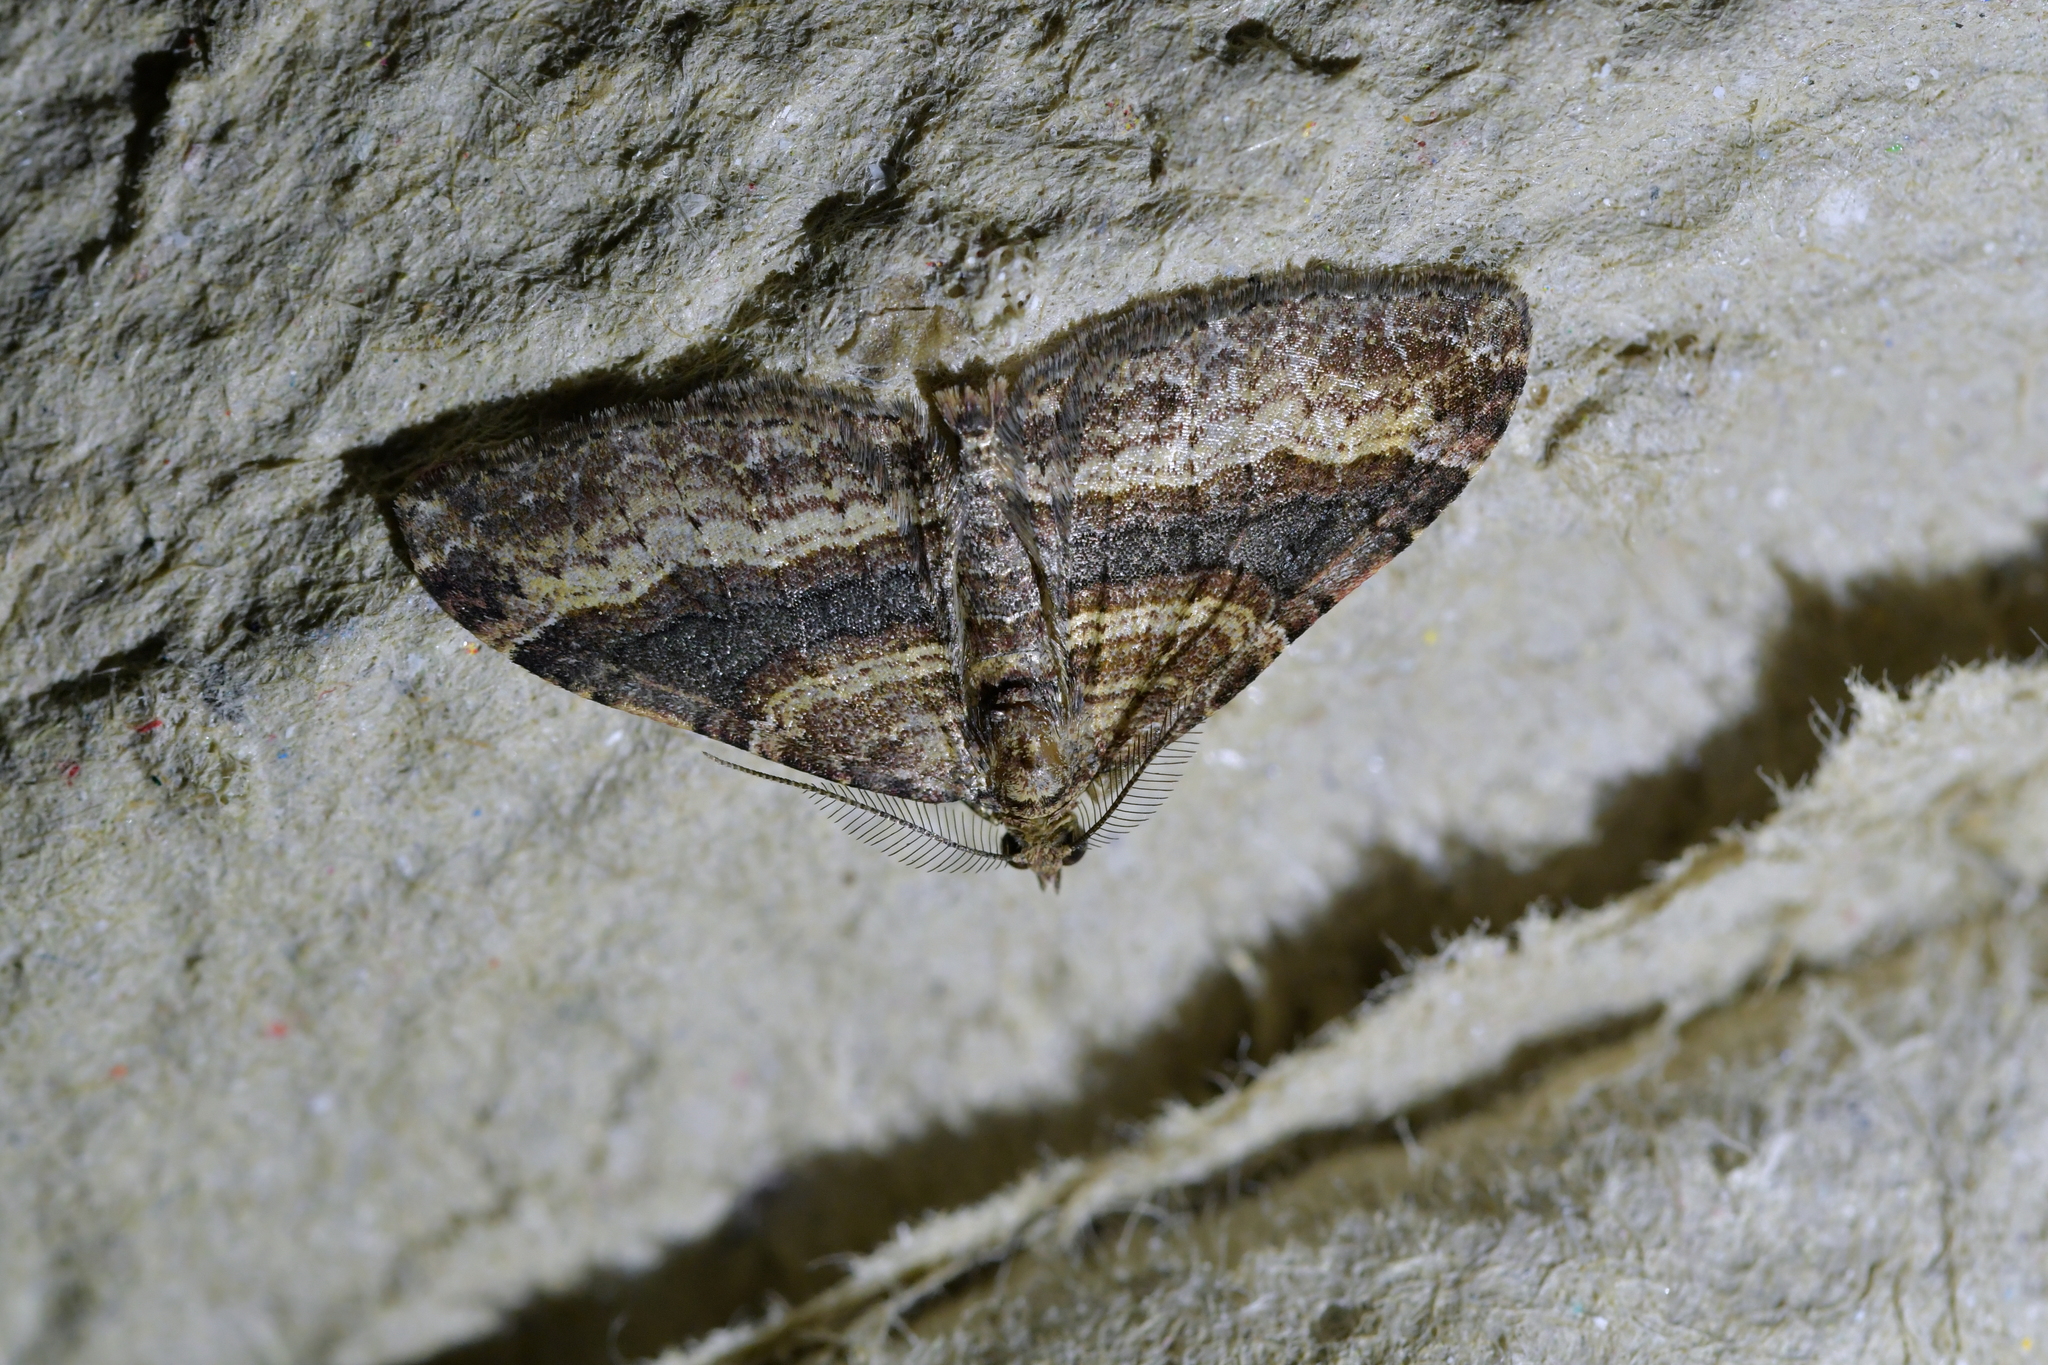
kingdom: Animalia
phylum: Arthropoda
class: Insecta
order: Lepidoptera
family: Geometridae
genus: Epyaxa
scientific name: Epyaxa lucidata
